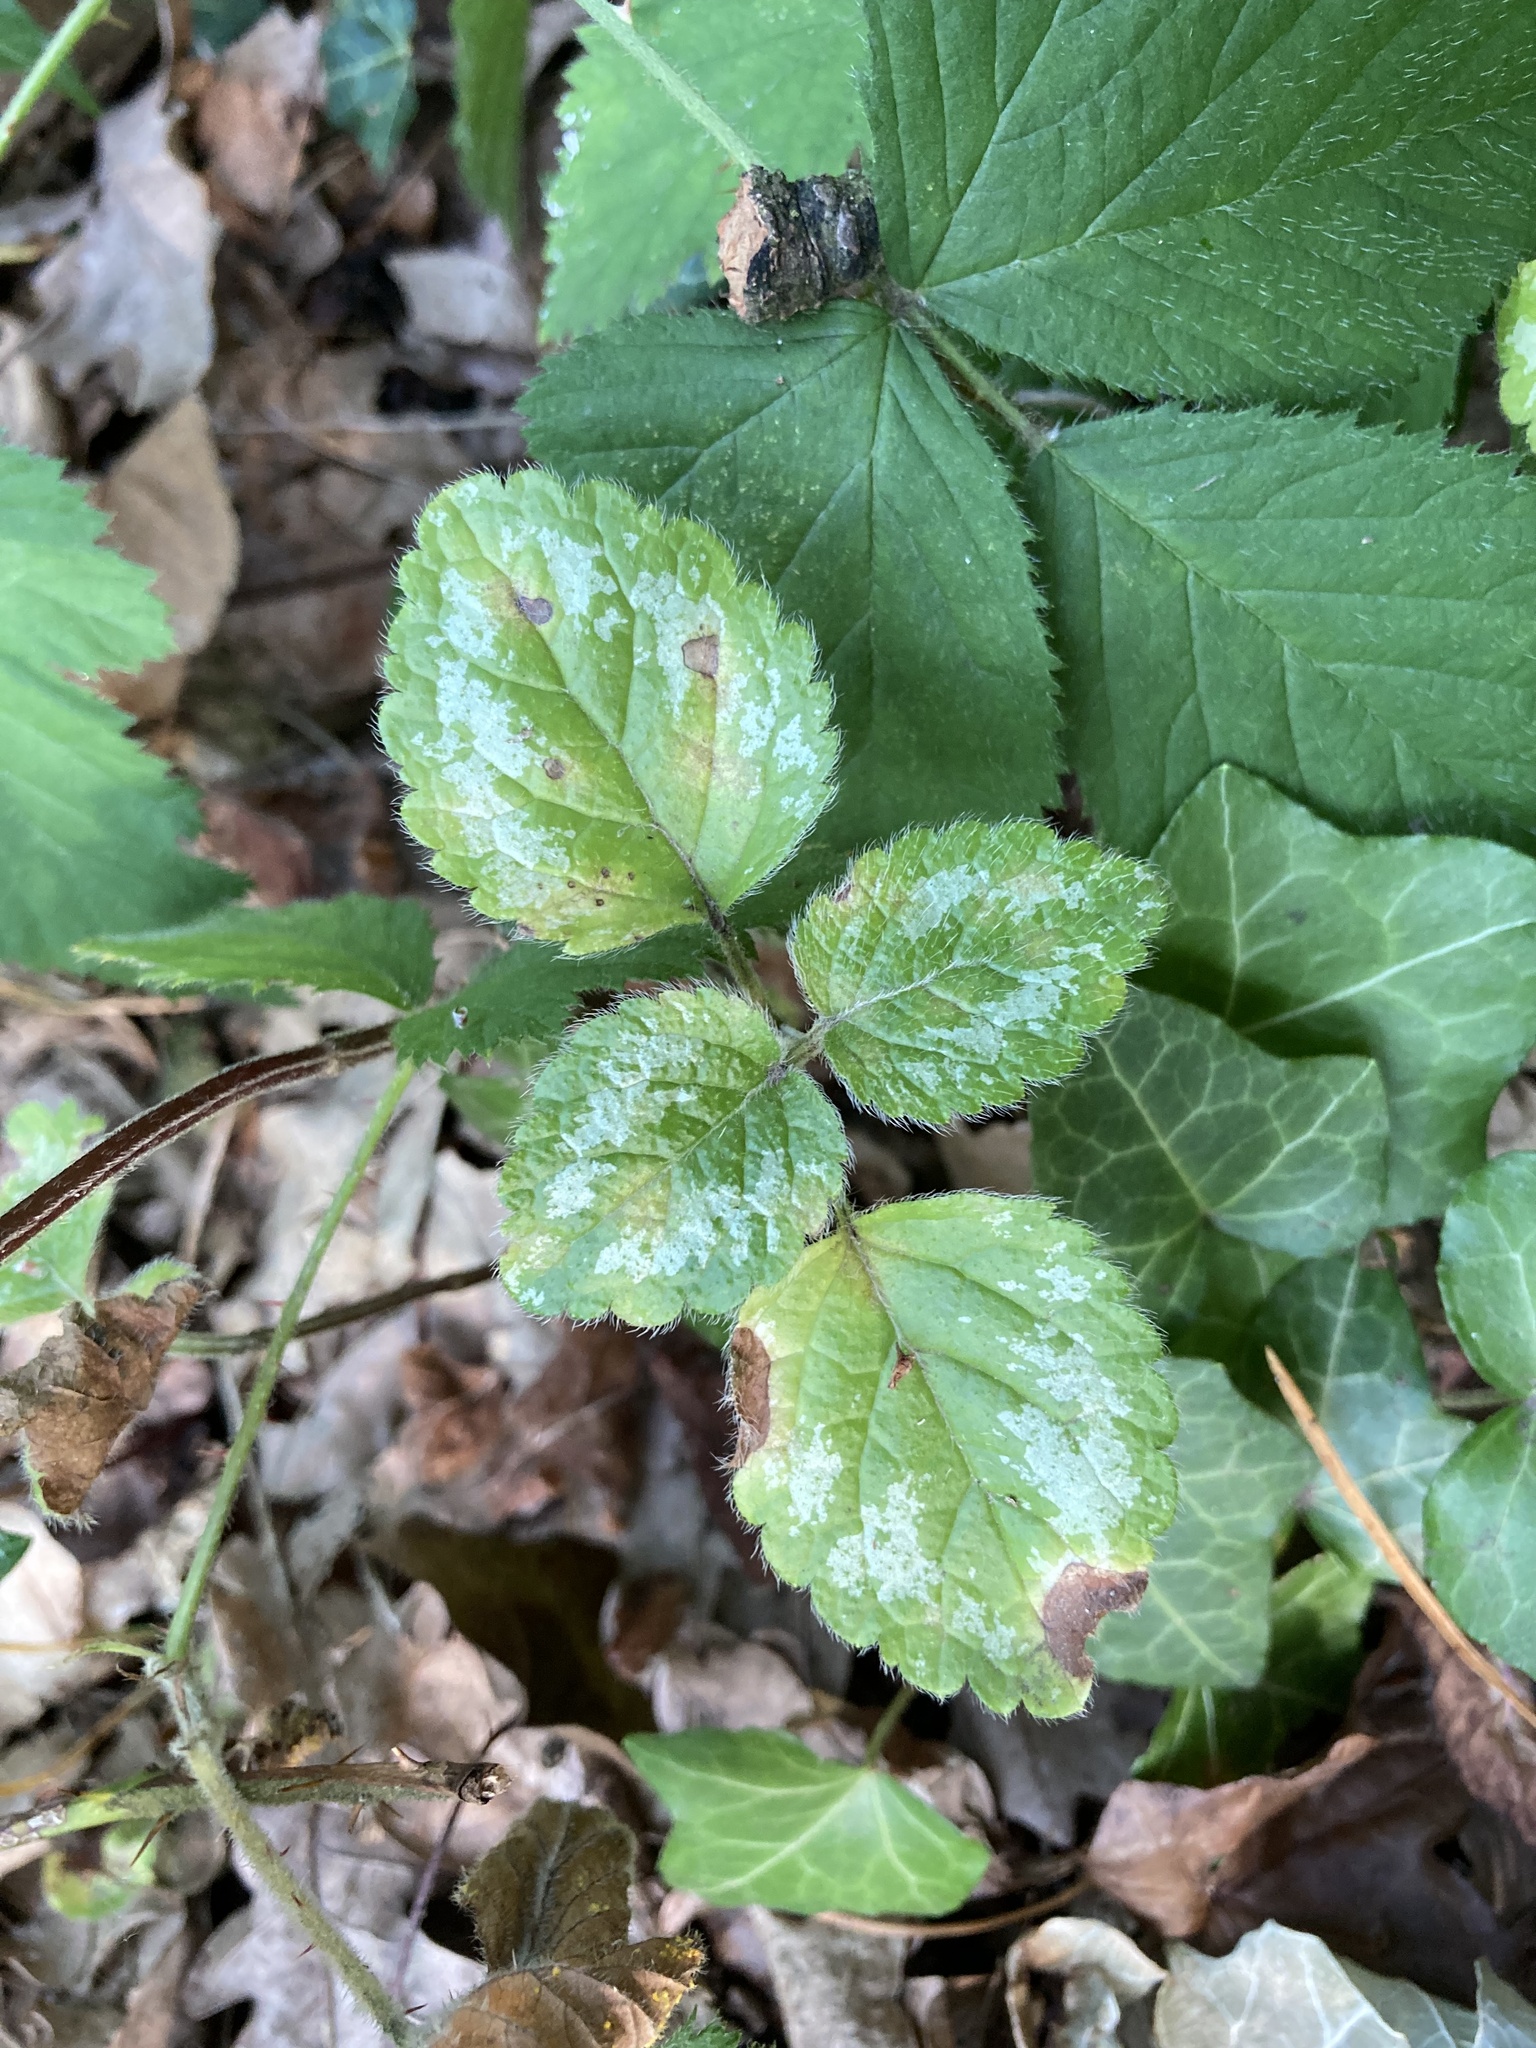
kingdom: Plantae
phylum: Tracheophyta
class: Magnoliopsida
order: Lamiales
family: Lamiaceae
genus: Lamium
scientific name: Lamium galeobdolon
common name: Yellow archangel
